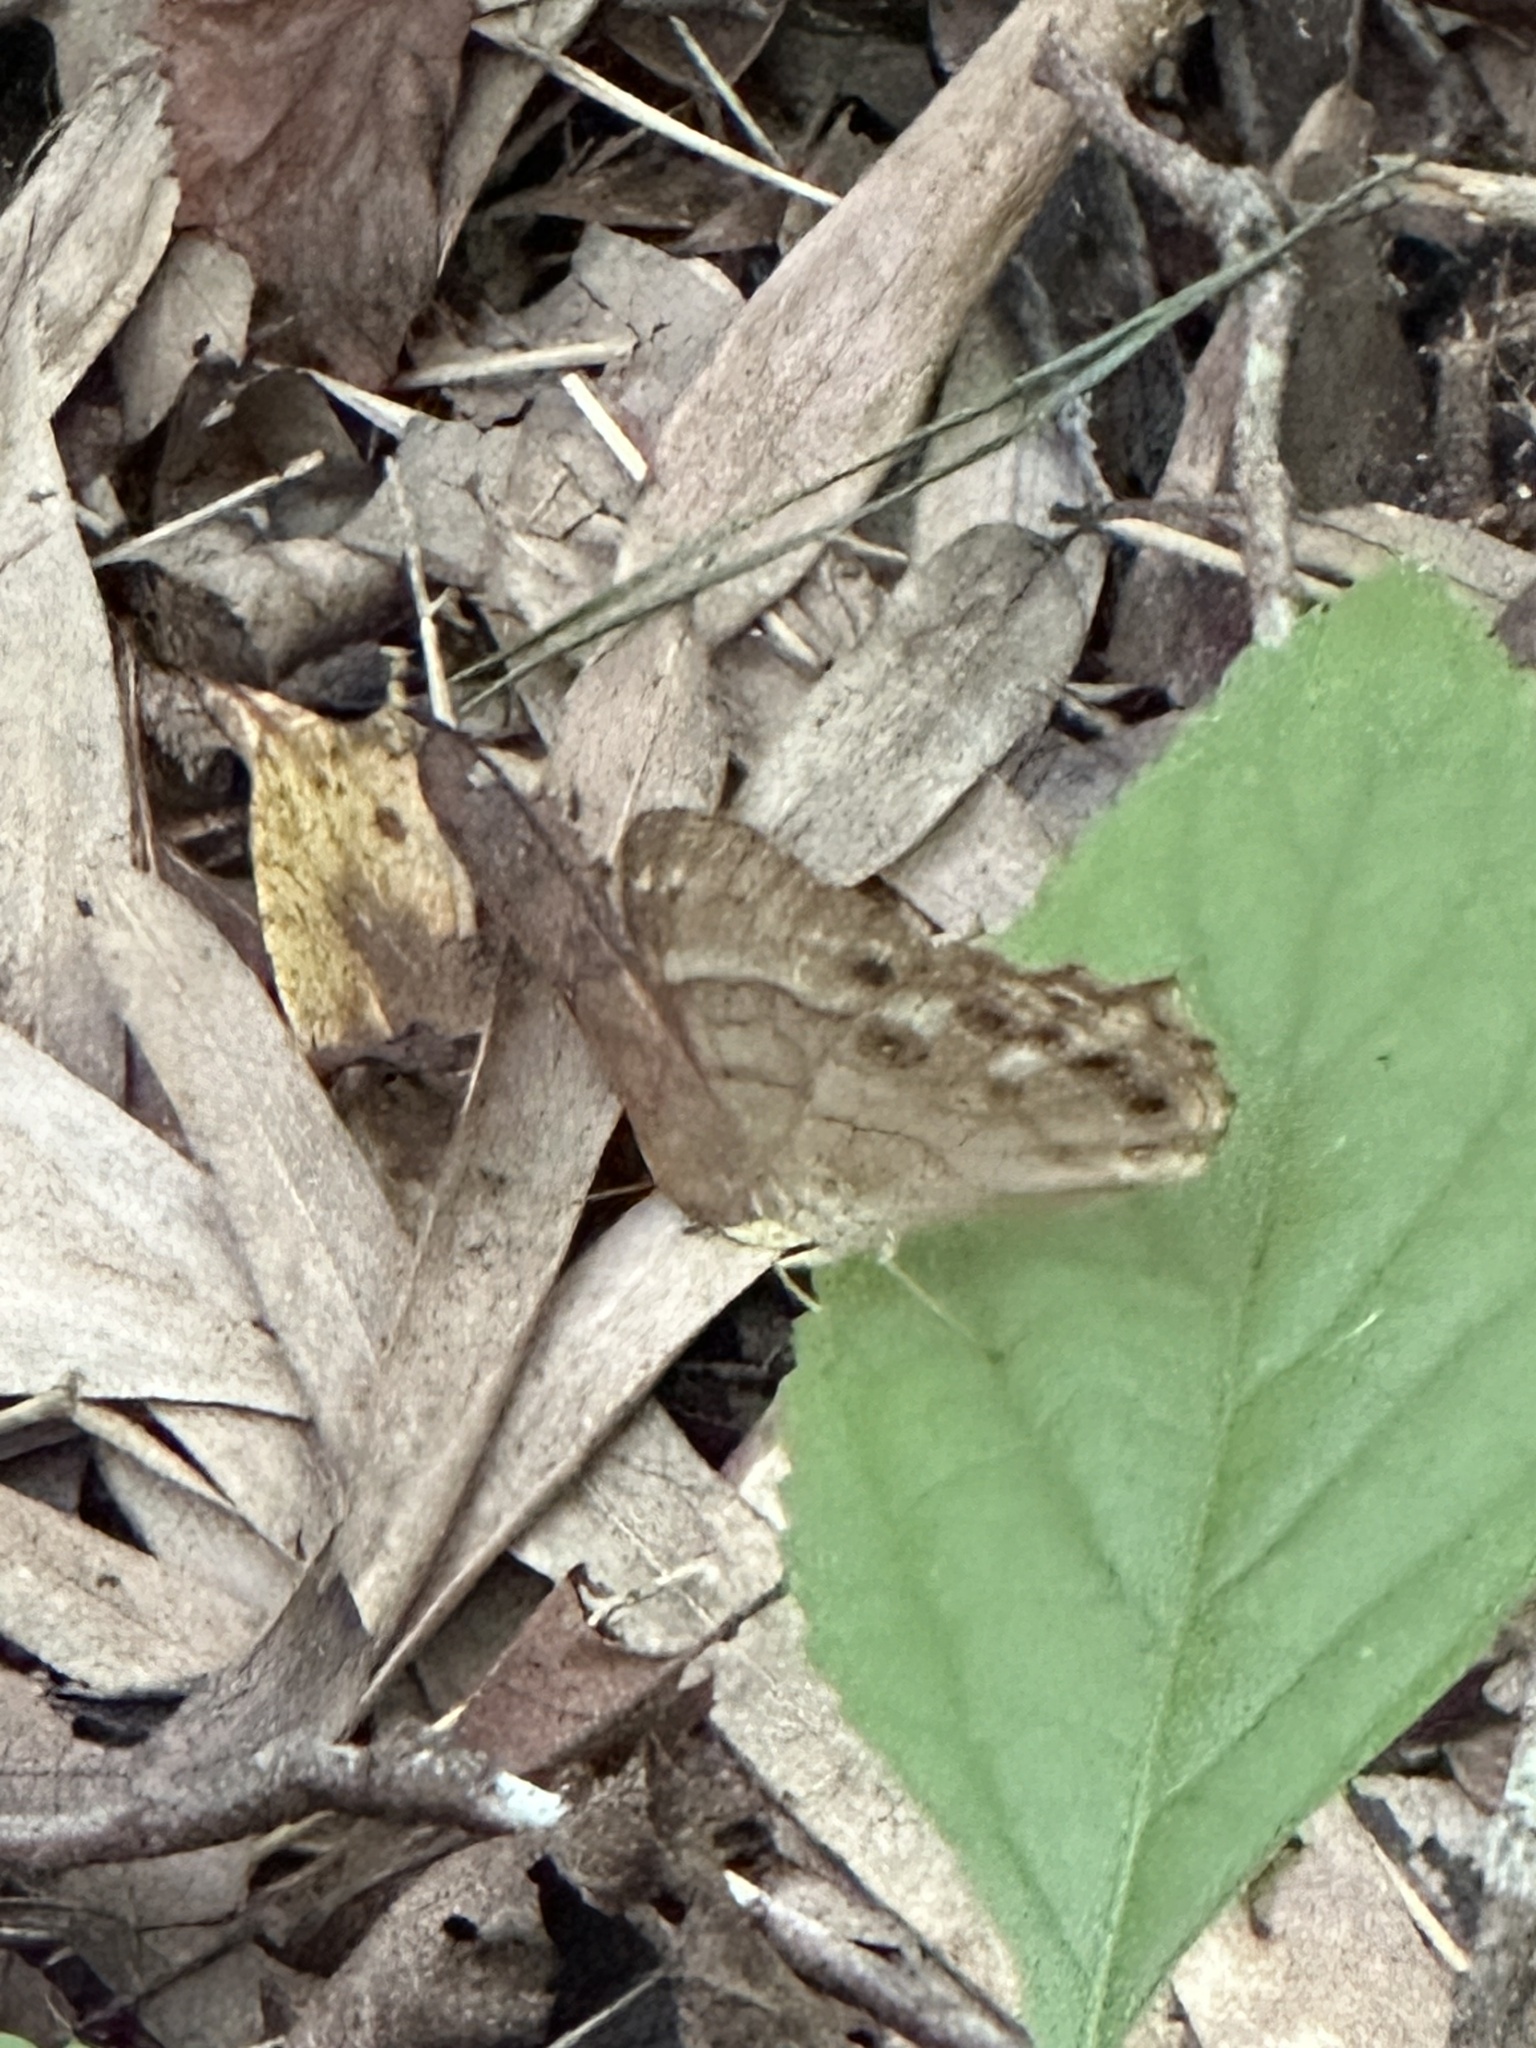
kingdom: Animalia
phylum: Arthropoda
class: Insecta
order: Lepidoptera
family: Nymphalidae
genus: Enodia
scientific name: Enodia portlandia
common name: Southern pearly-eye
